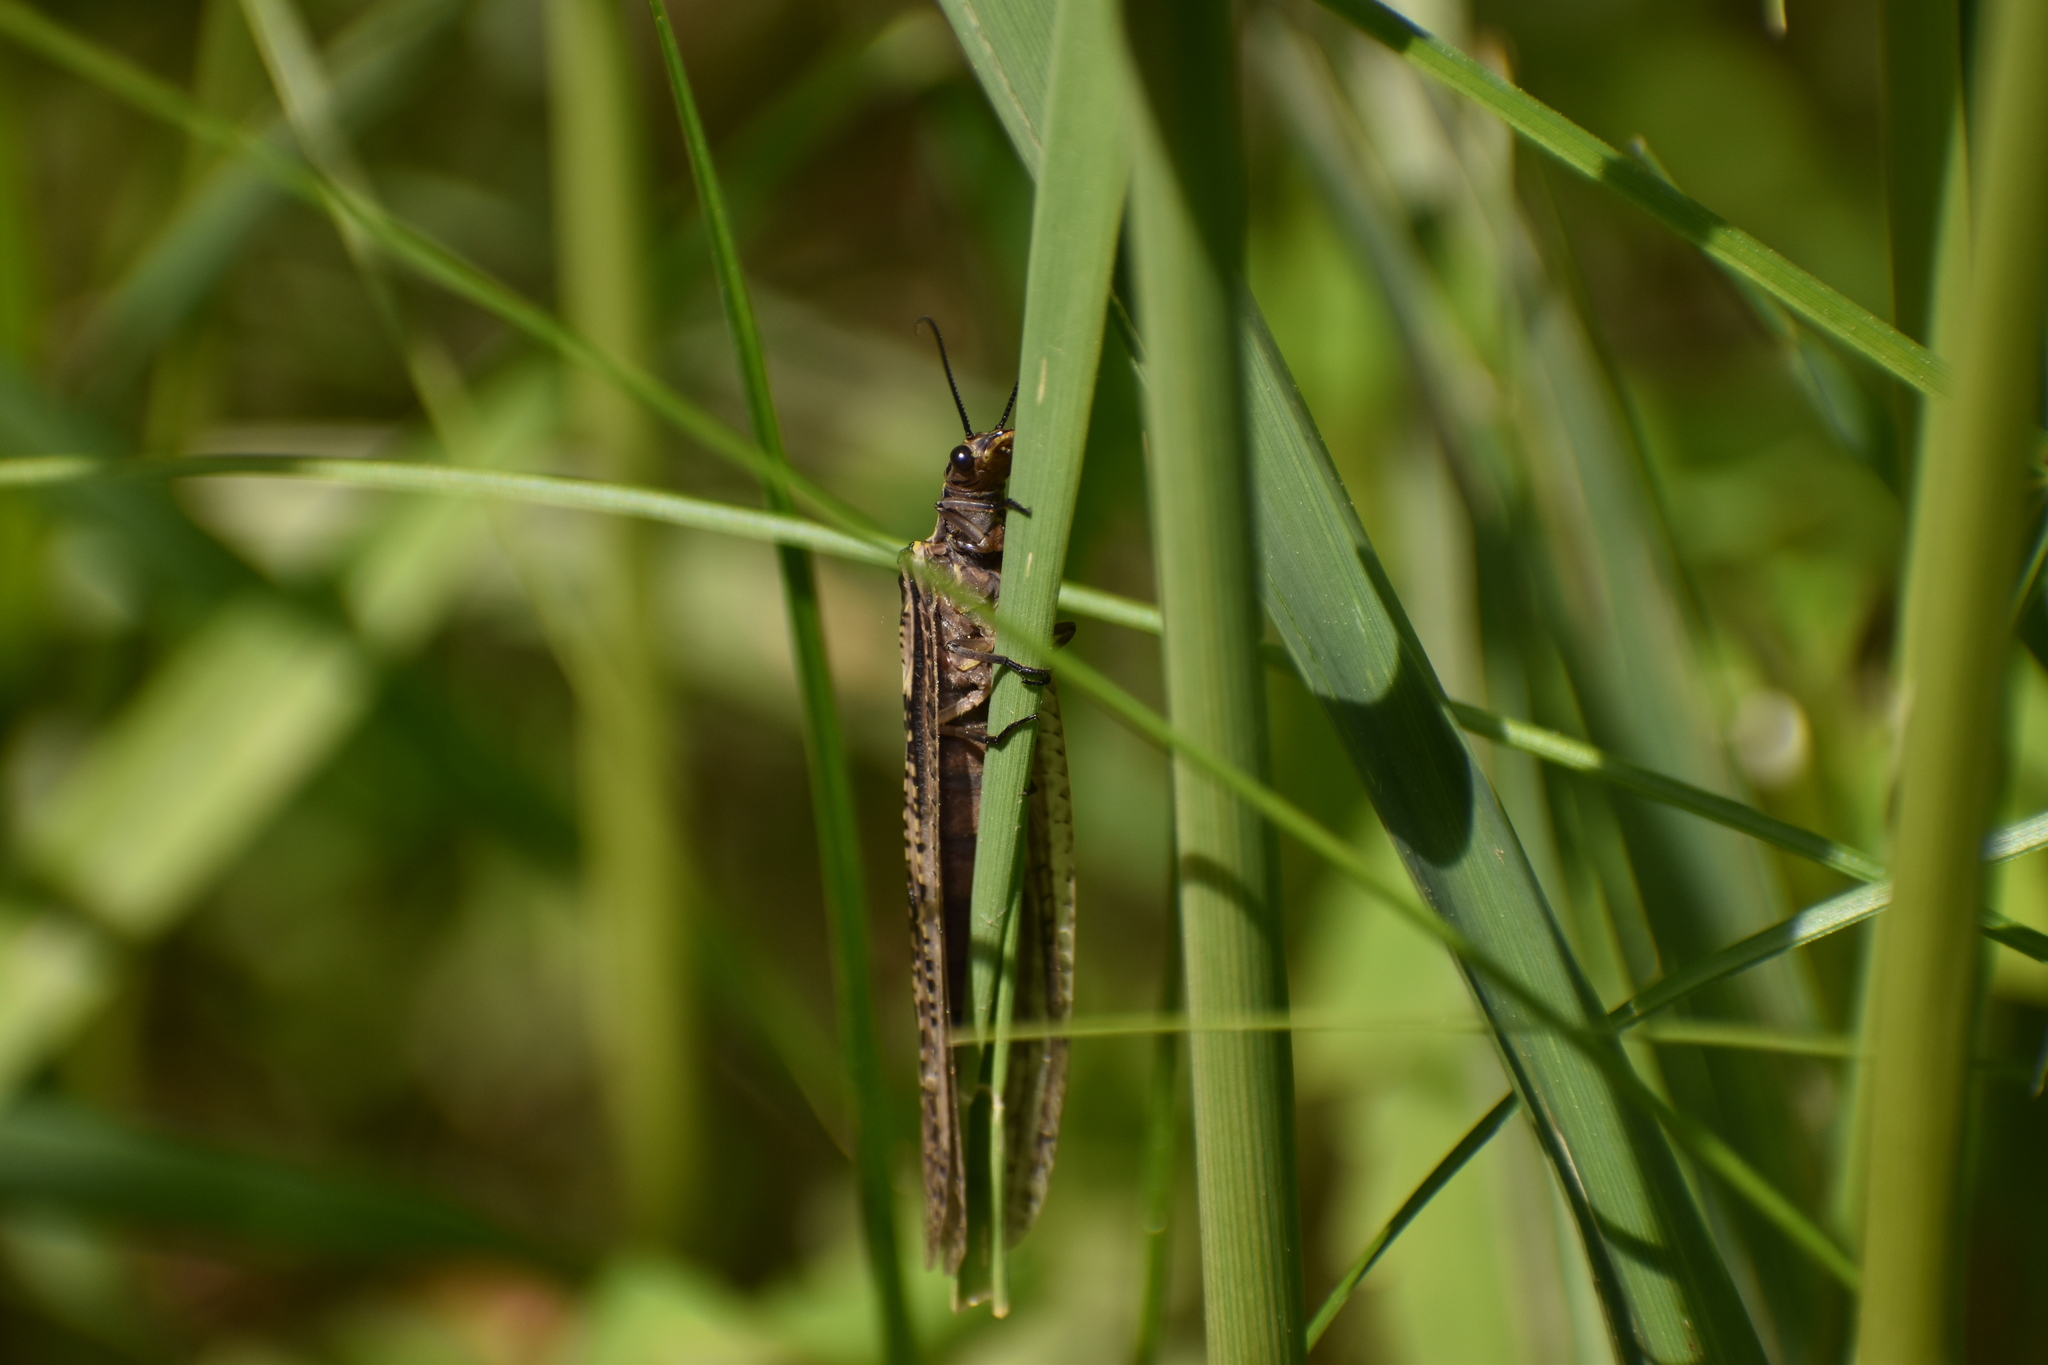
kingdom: Animalia
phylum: Arthropoda
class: Insecta
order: Megaloptera
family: Corydalidae
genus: Chauliodes
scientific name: Chauliodes rastricornis
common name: Spring fishfly
